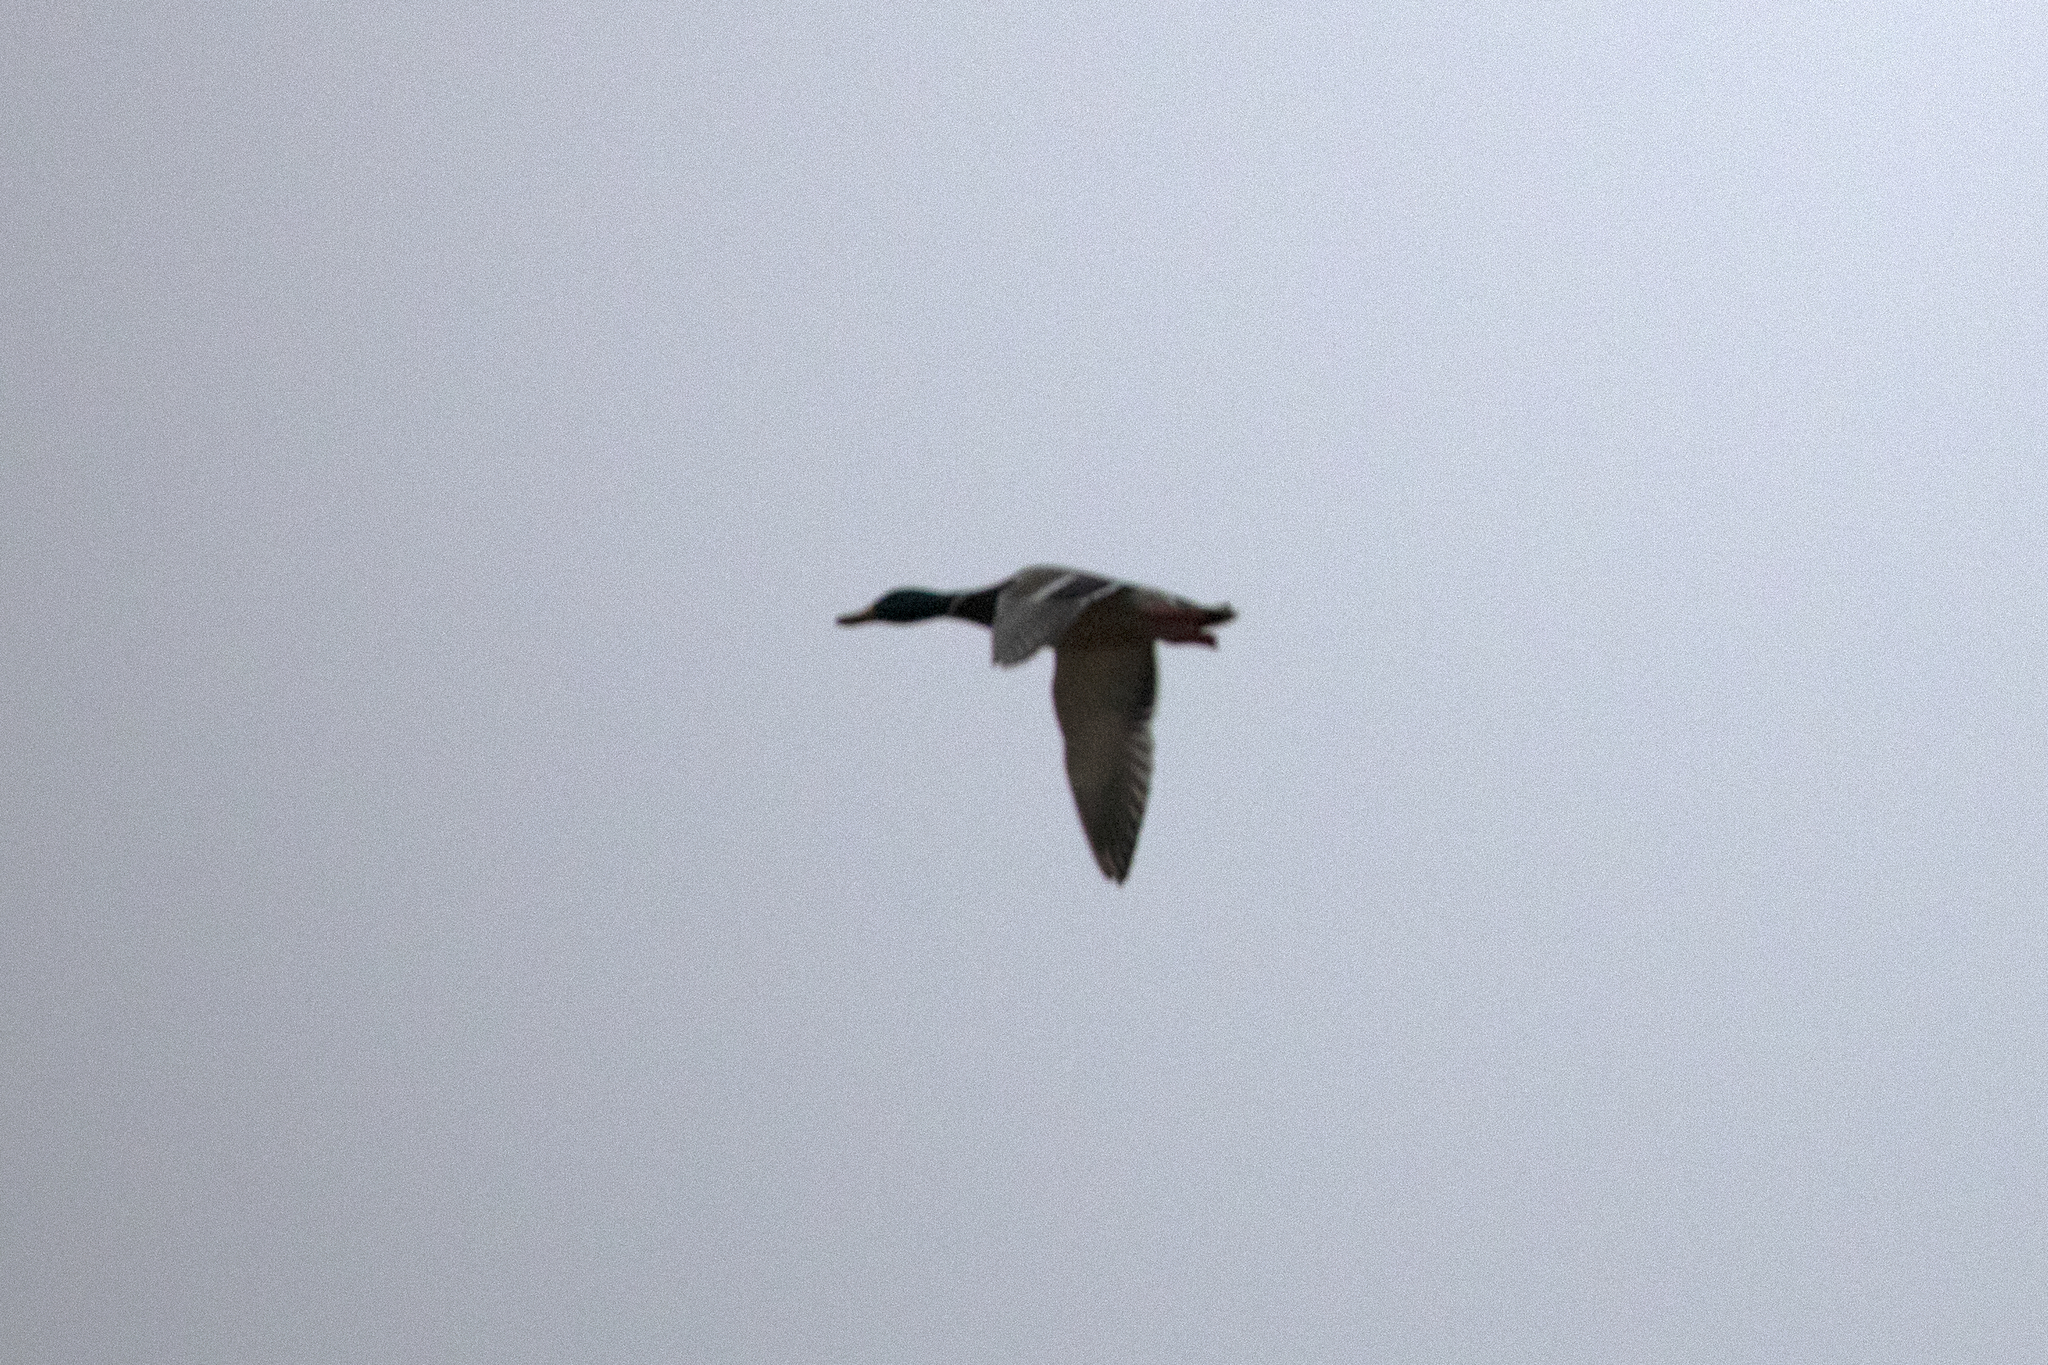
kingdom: Animalia
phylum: Chordata
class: Aves
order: Anseriformes
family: Anatidae
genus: Anas
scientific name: Anas platyrhynchos
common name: Mallard
